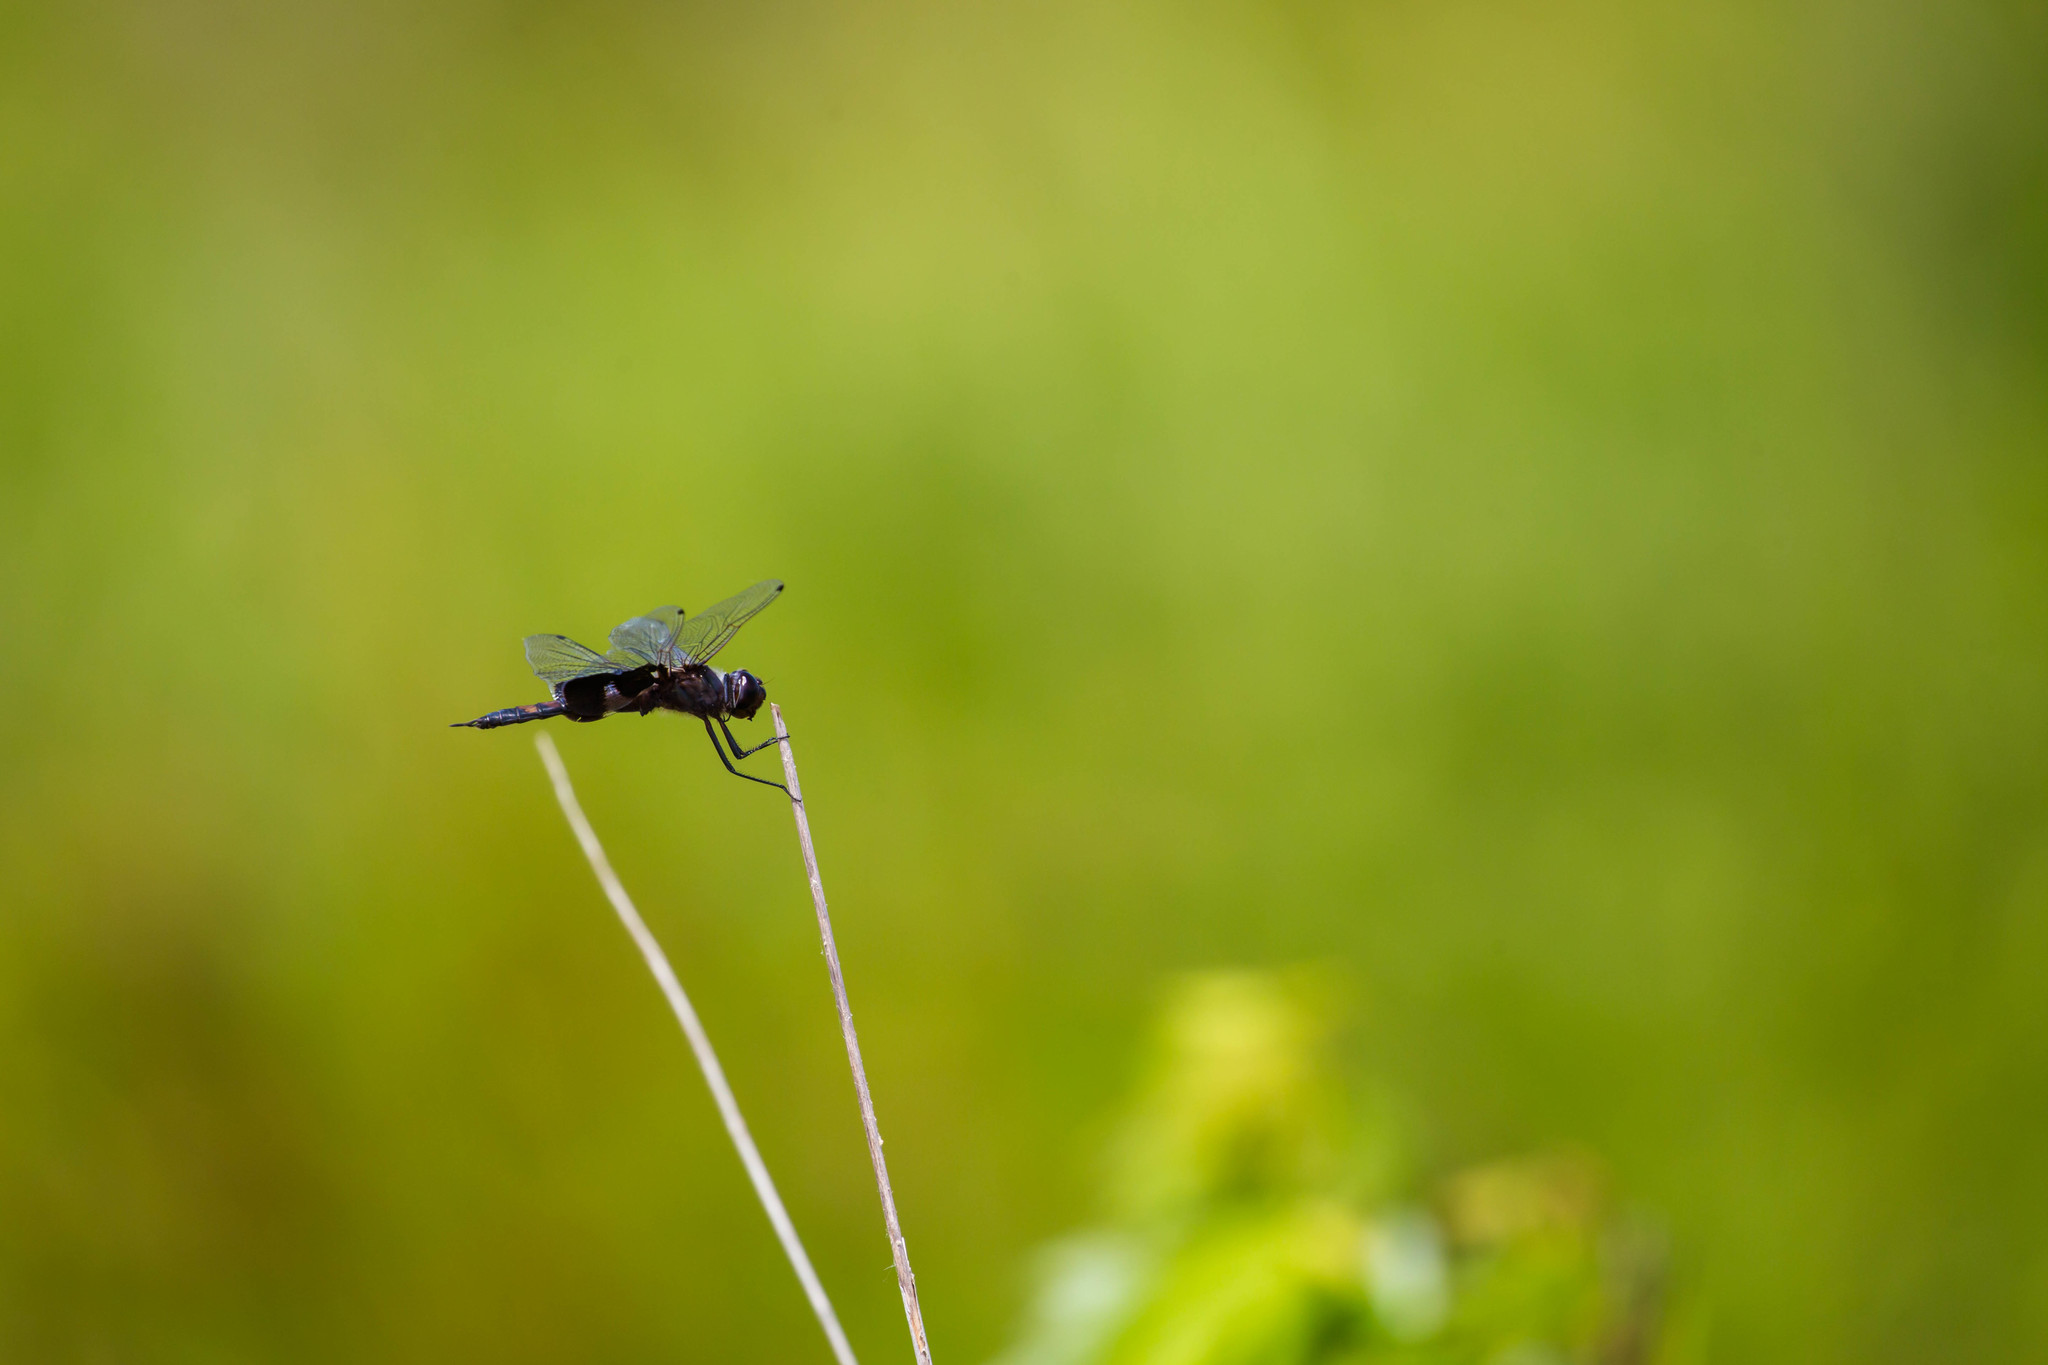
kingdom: Animalia
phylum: Arthropoda
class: Insecta
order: Odonata
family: Libellulidae
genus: Tramea
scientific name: Tramea lacerata
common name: Black saddlebags
